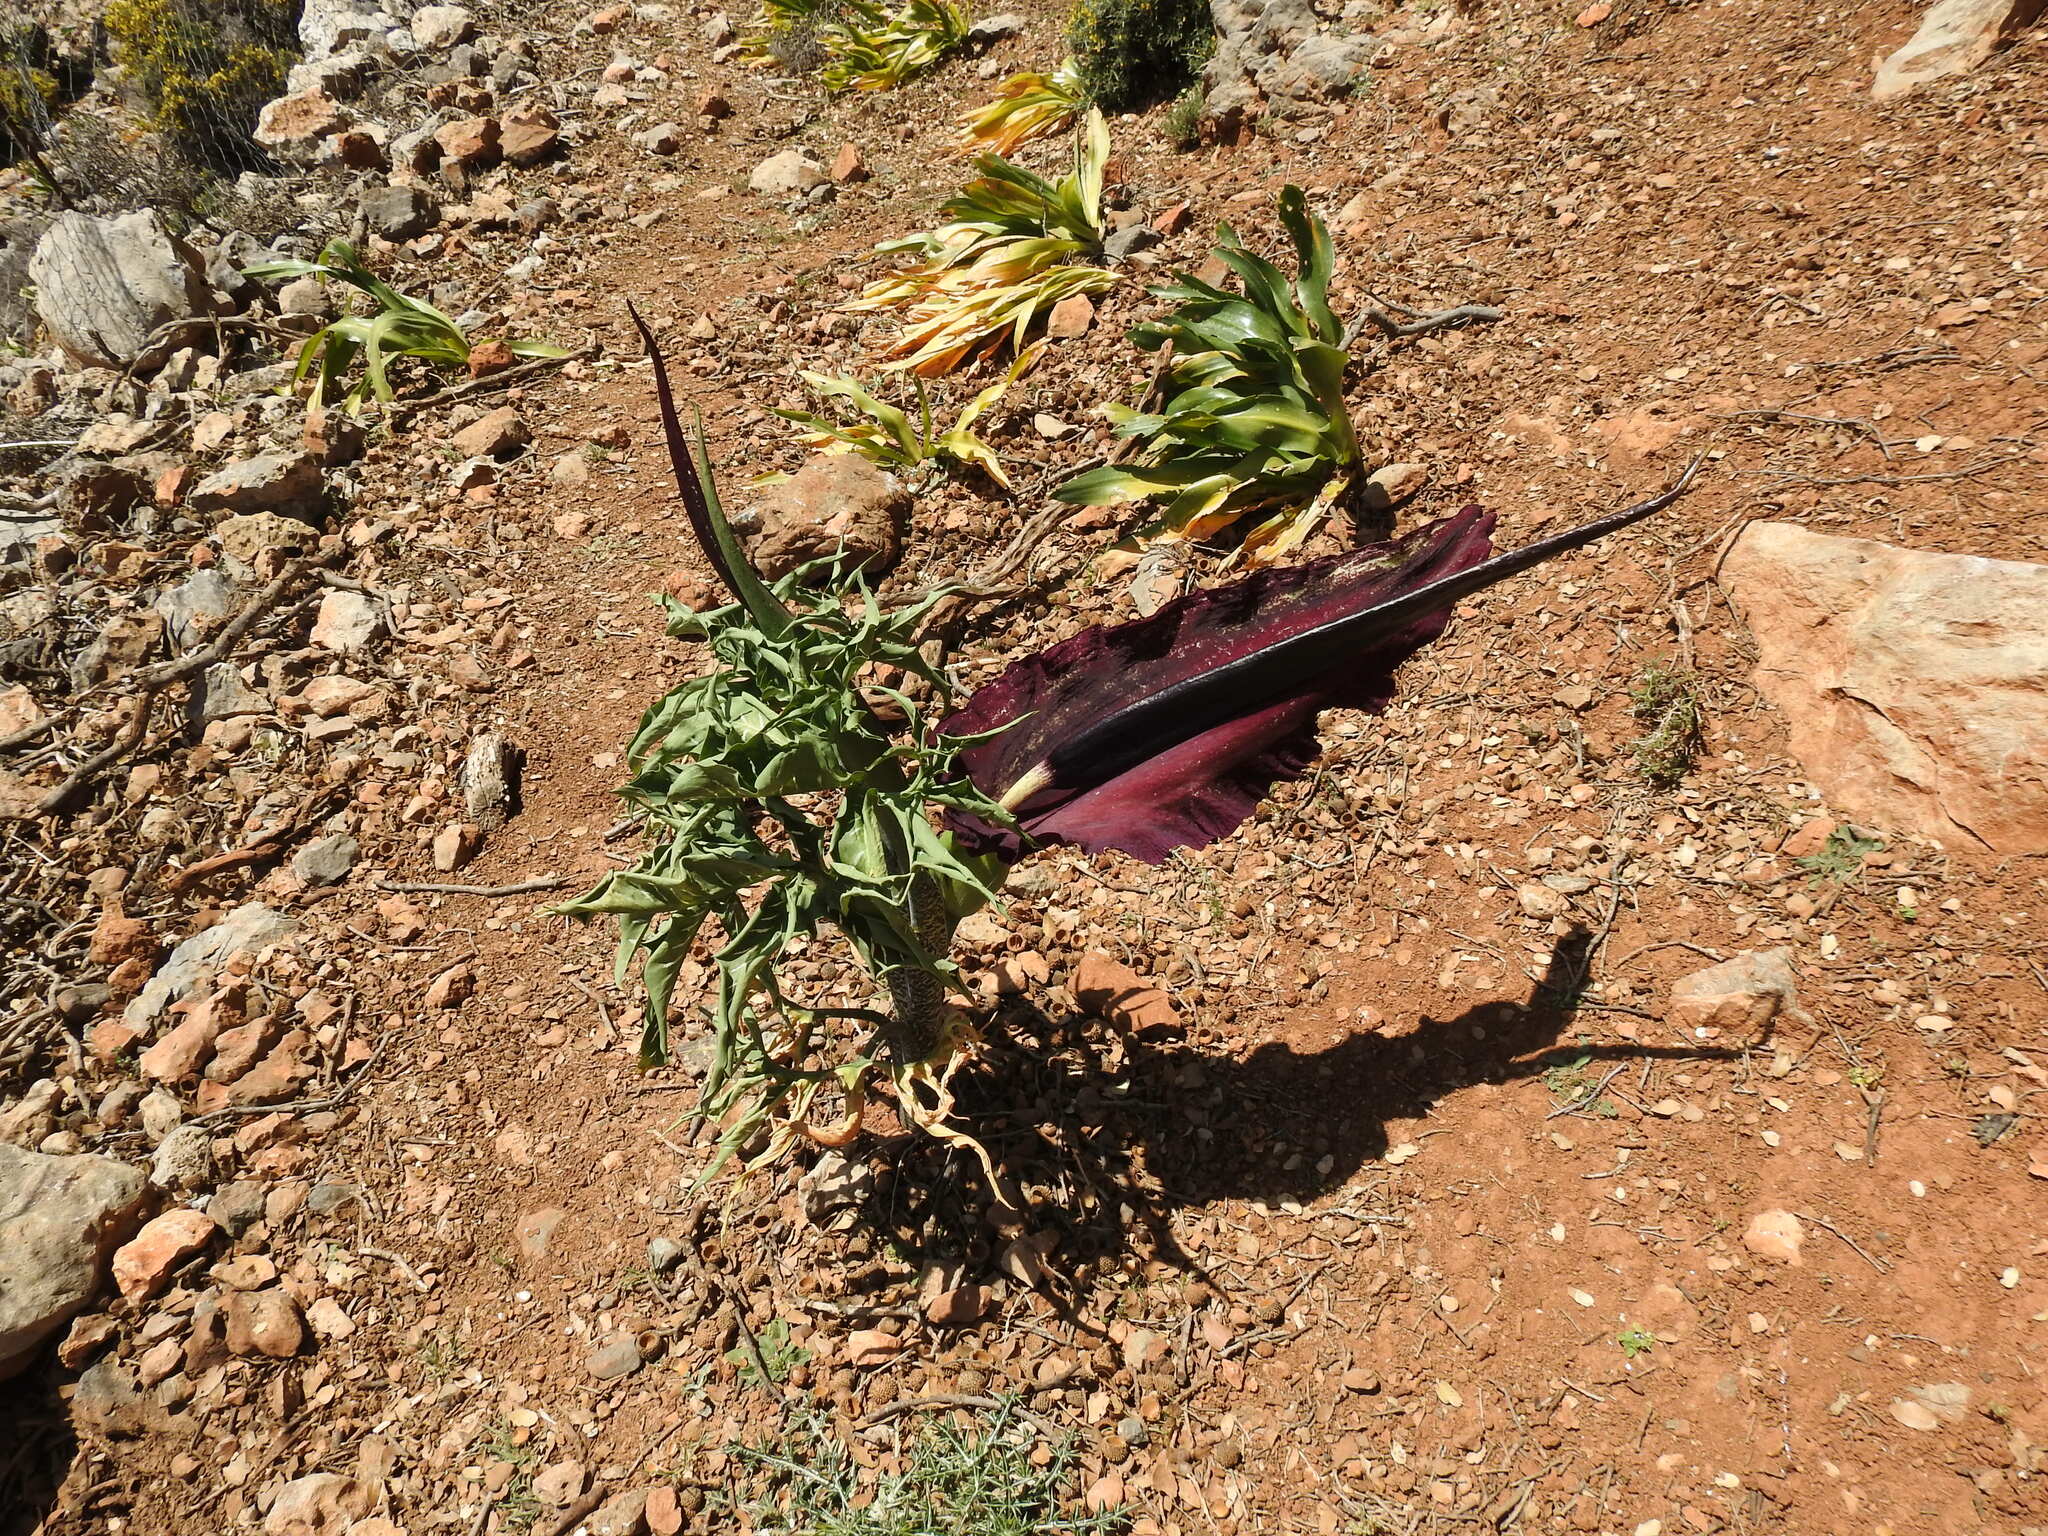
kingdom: Plantae
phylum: Tracheophyta
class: Liliopsida
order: Alismatales
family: Araceae
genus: Dracunculus
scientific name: Dracunculus vulgaris
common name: Dragon arum
